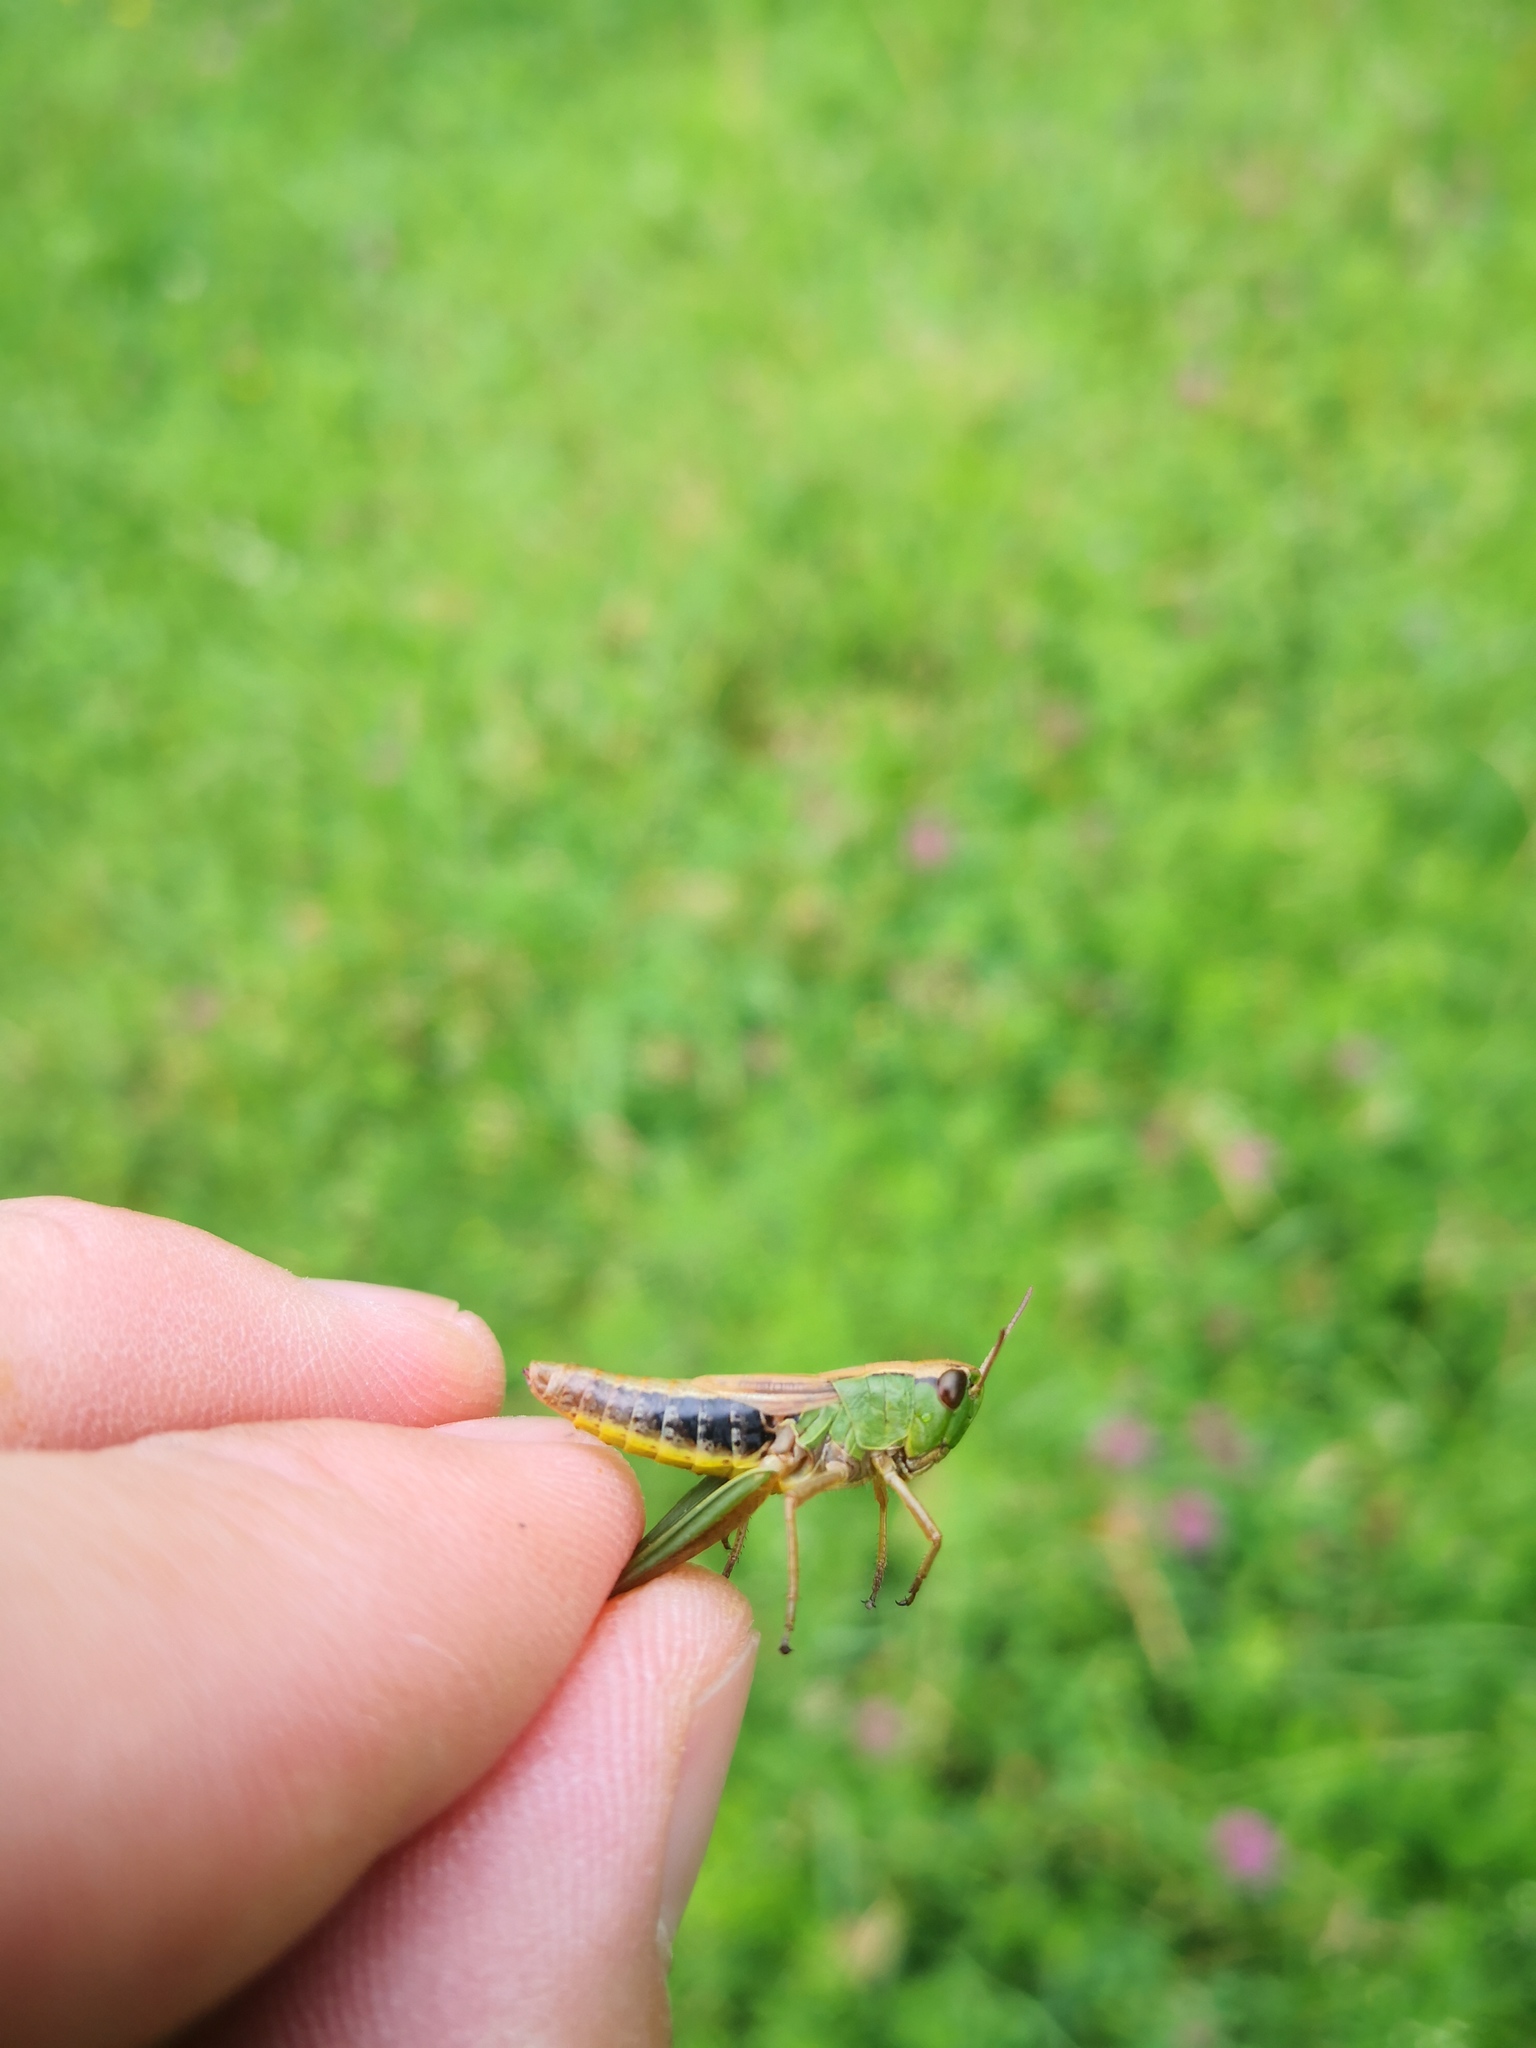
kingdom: Animalia
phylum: Arthropoda
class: Insecta
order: Orthoptera
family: Acrididae
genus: Pseudochorthippus
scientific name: Pseudochorthippus parallelus
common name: Meadow grasshopper
